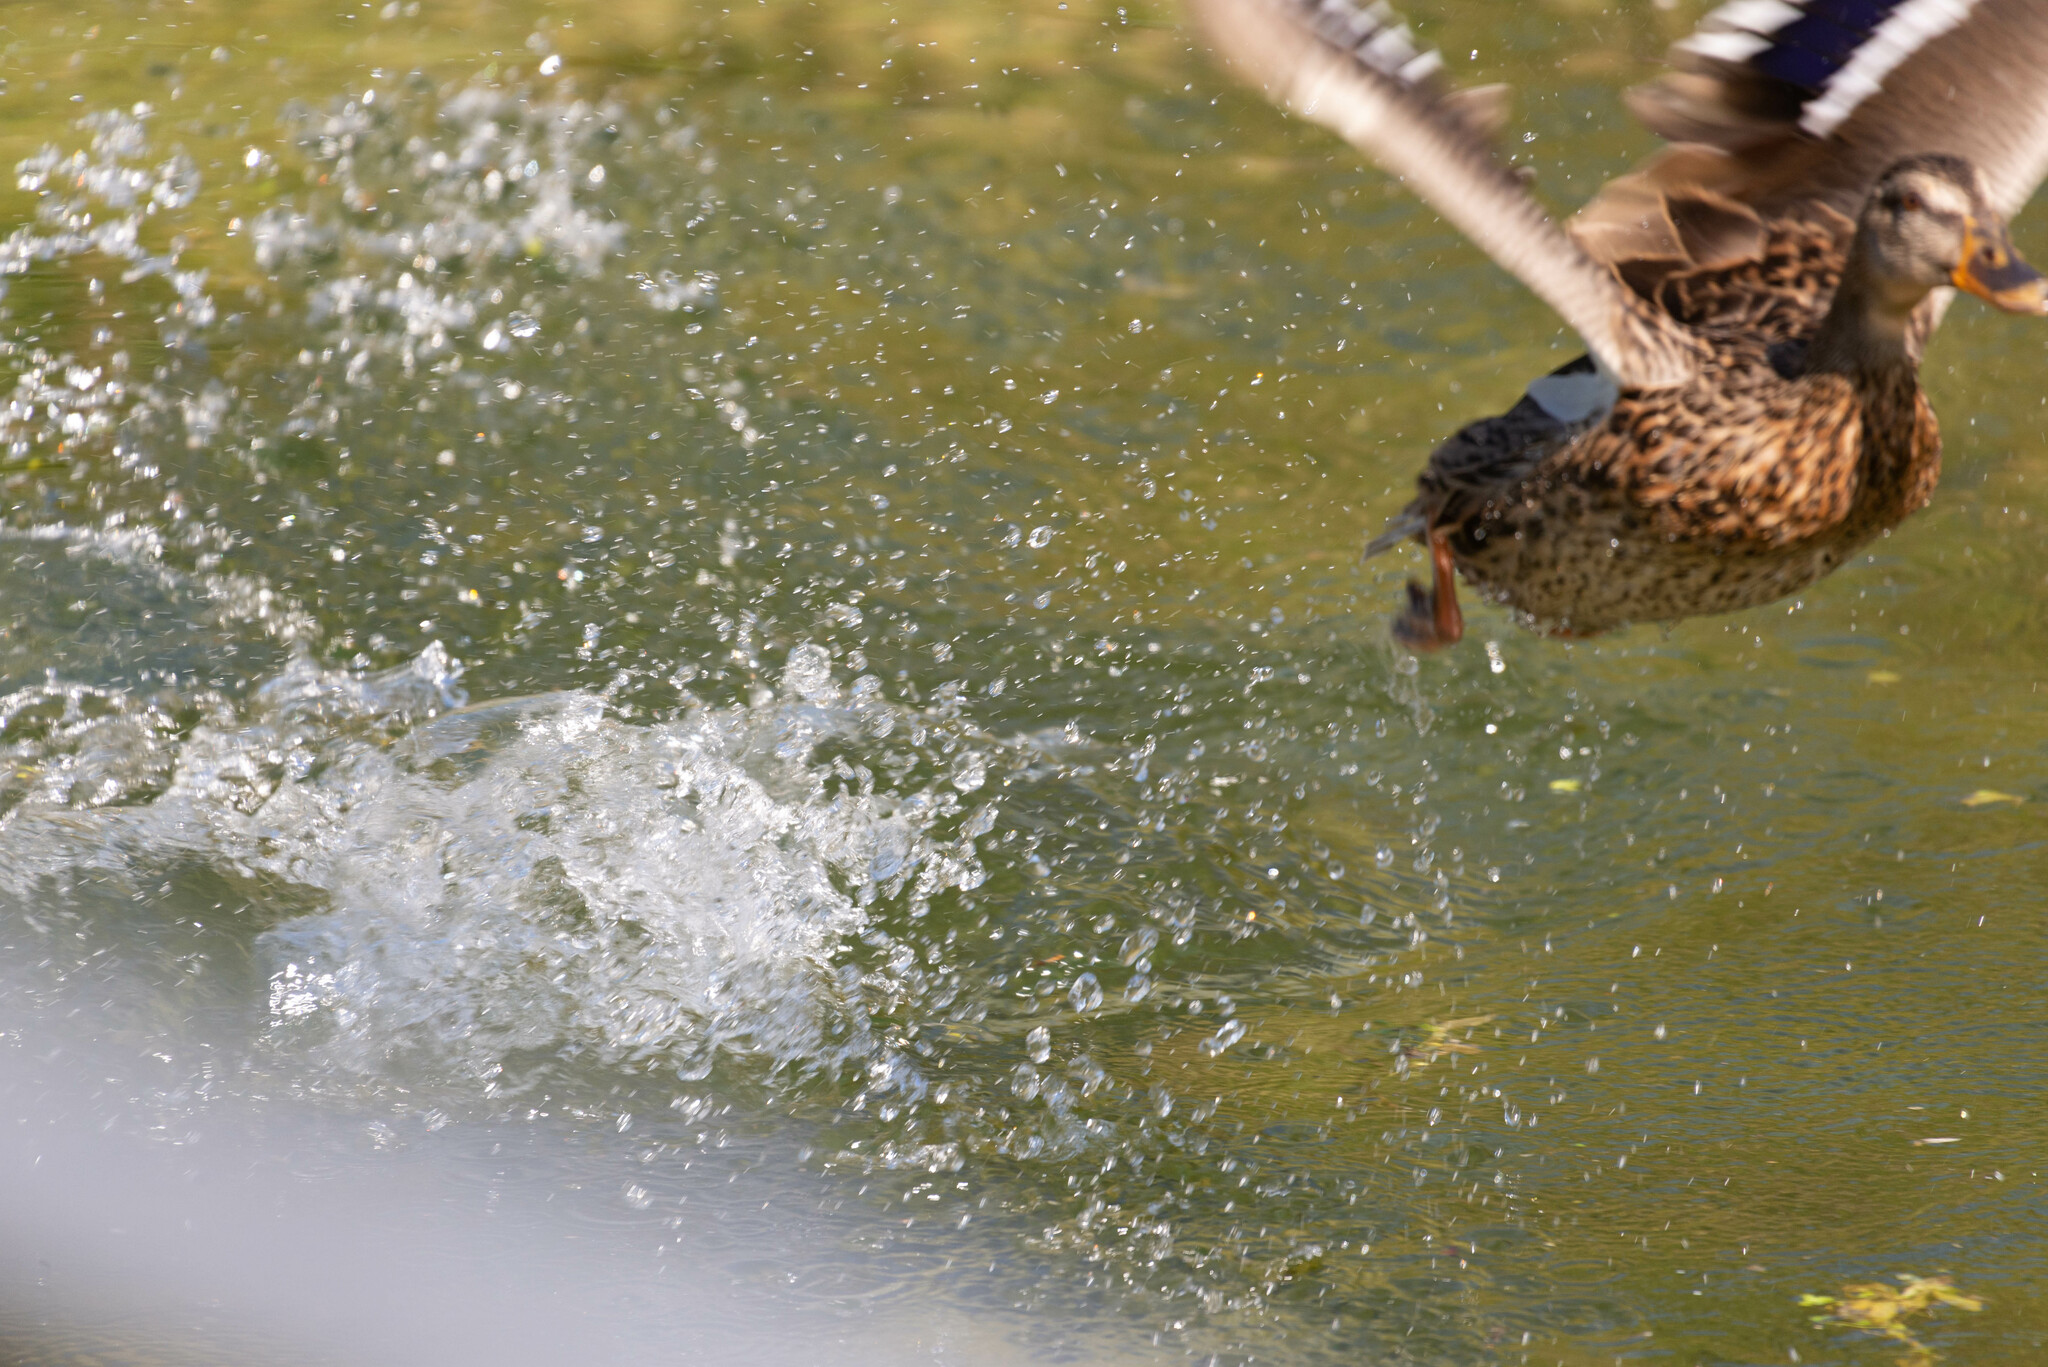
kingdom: Animalia
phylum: Chordata
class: Aves
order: Anseriformes
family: Anatidae
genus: Anas
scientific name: Anas platyrhynchos
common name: Mallard
